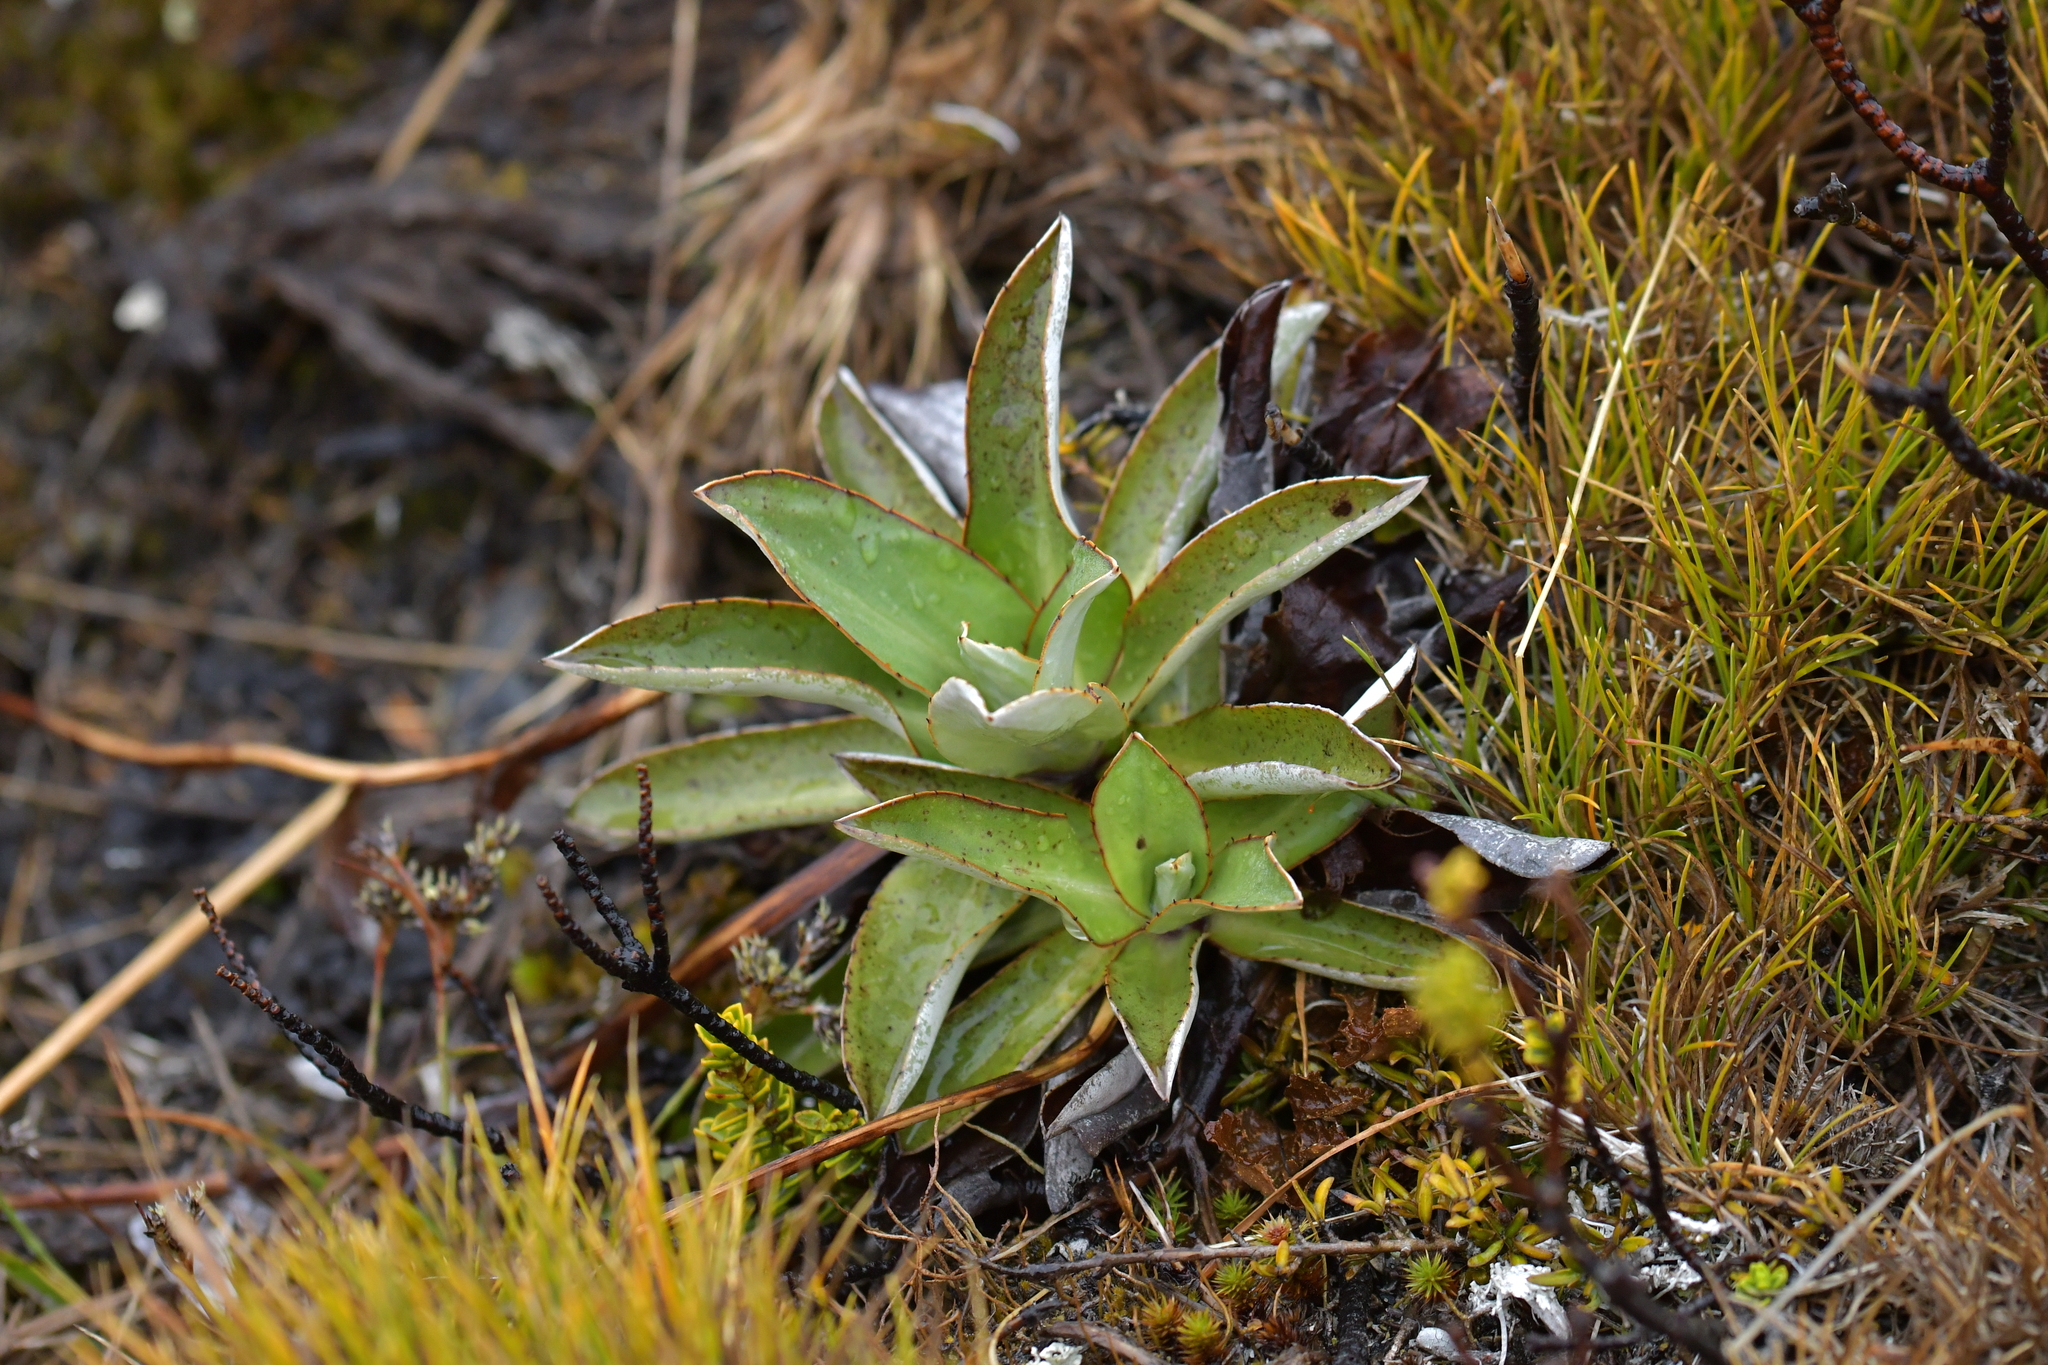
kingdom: Plantae
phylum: Tracheophyta
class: Magnoliopsida
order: Asterales
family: Asteraceae
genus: Celmisia
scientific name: Celmisia dallii
